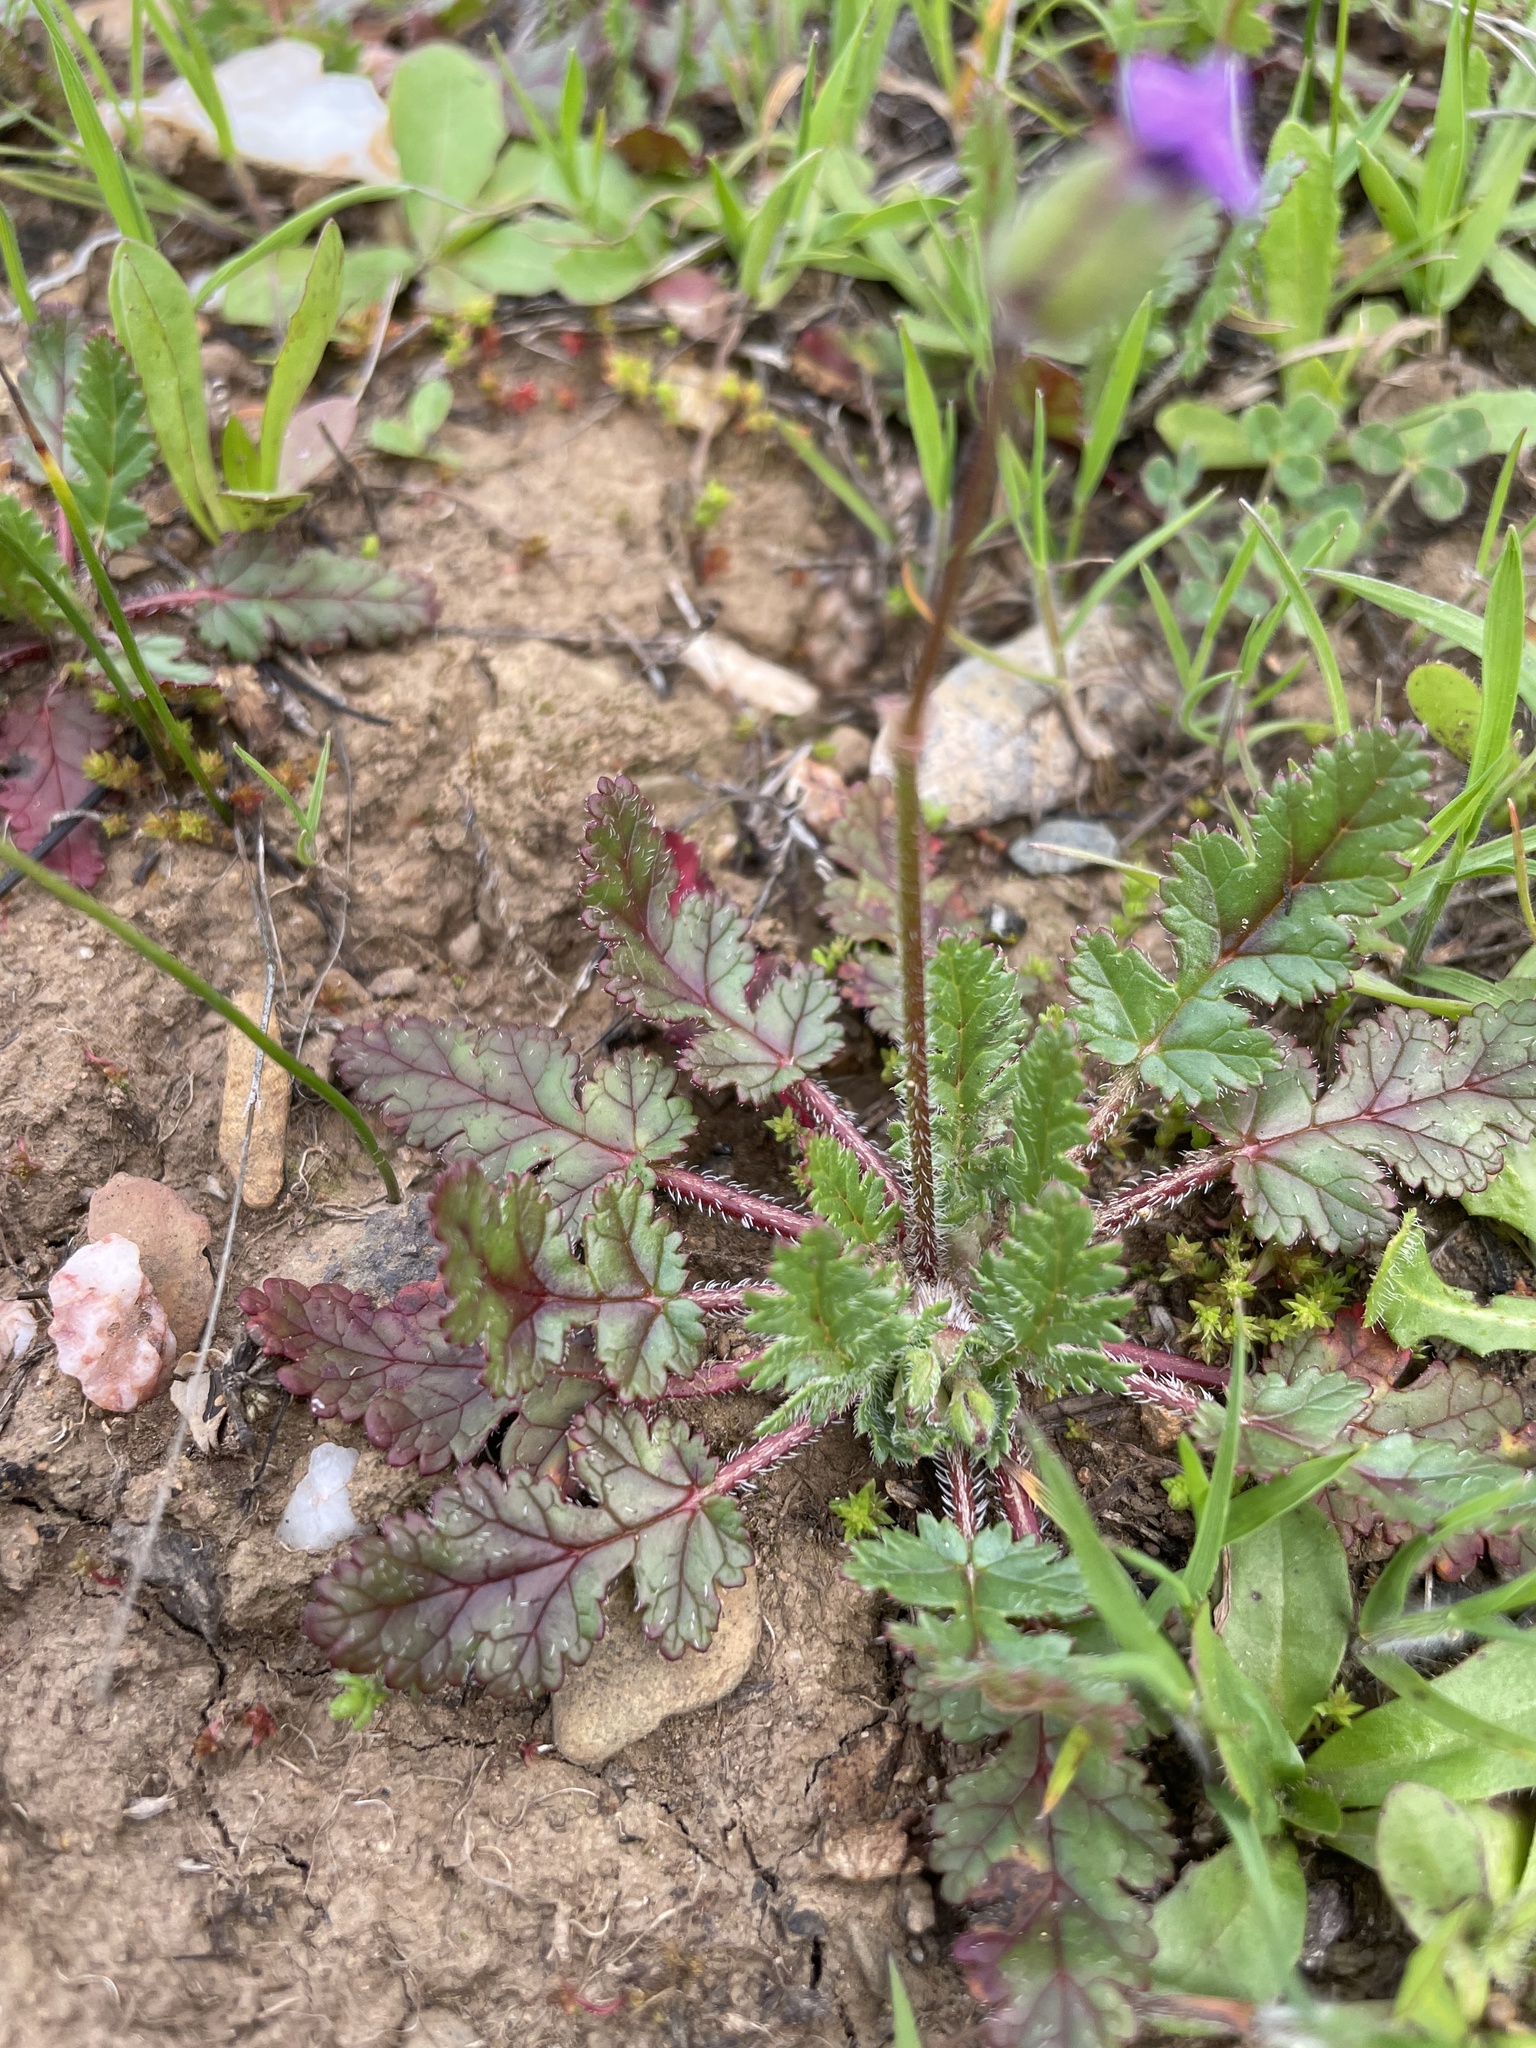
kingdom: Plantae
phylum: Tracheophyta
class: Magnoliopsida
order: Geraniales
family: Geraniaceae
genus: Erodium
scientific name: Erodium botrys
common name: Mediterranean stork's-bill
